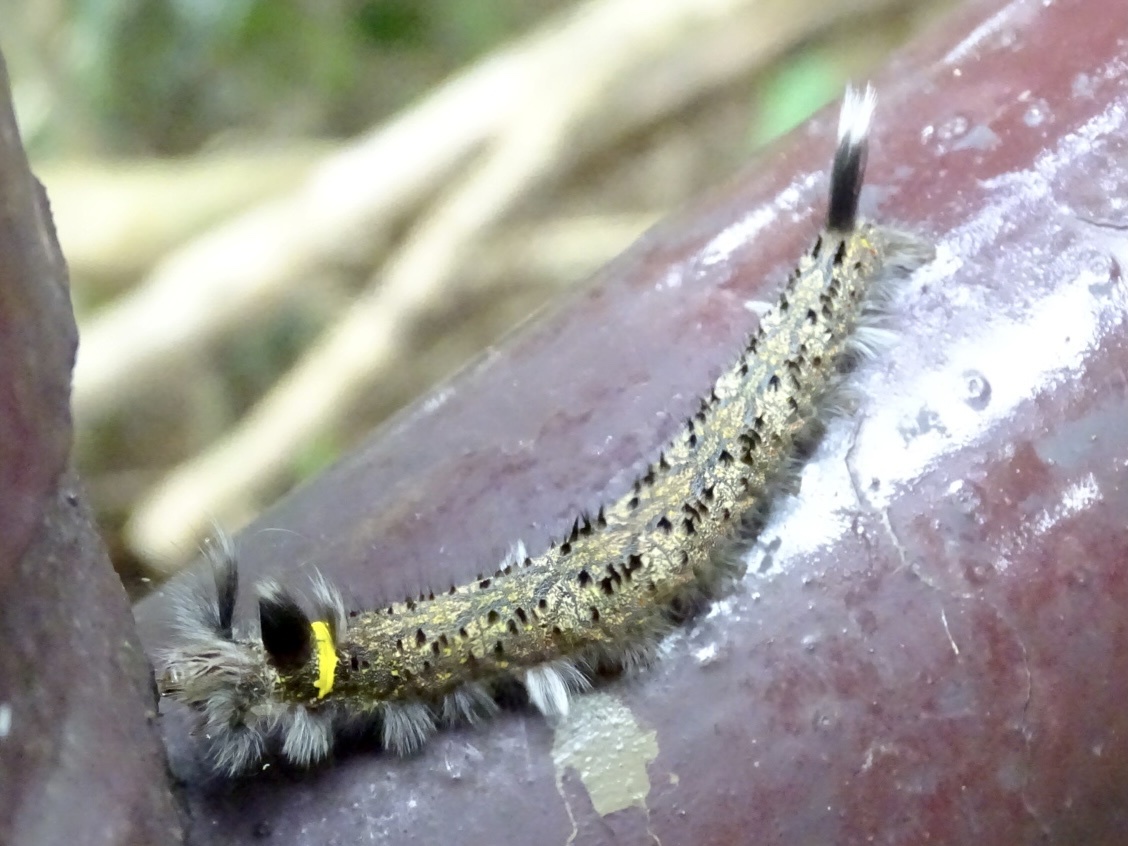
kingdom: Animalia
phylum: Arthropoda
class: Insecta
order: Lepidoptera
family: Lasiocampidae
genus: Euthrix
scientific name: Euthrix isocyma
